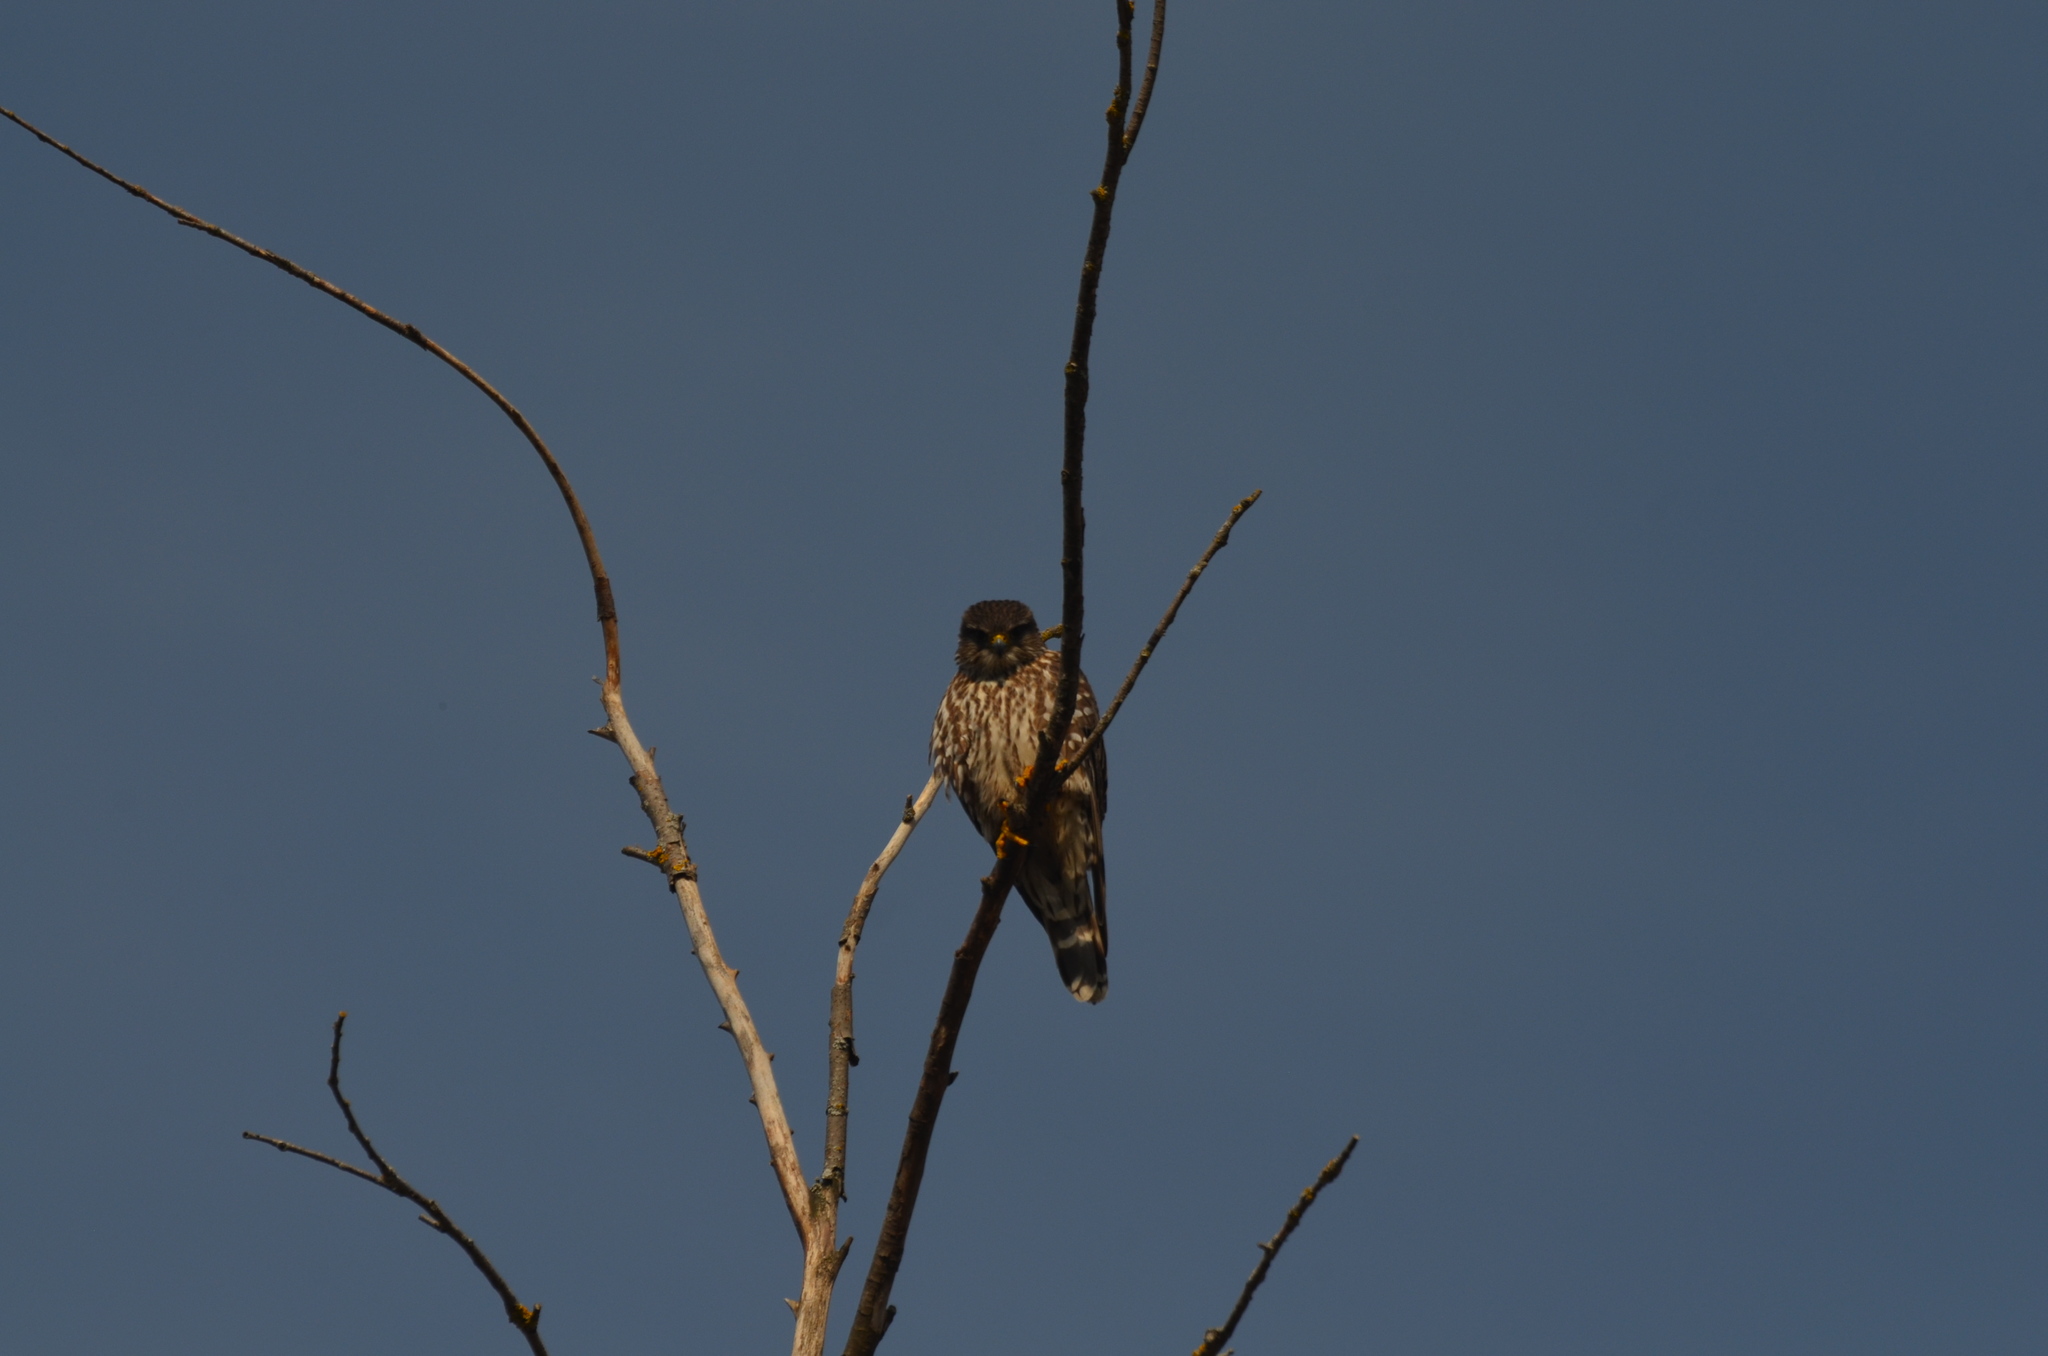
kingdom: Animalia
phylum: Chordata
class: Aves
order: Falconiformes
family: Falconidae
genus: Falco
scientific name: Falco columbarius
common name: Merlin
